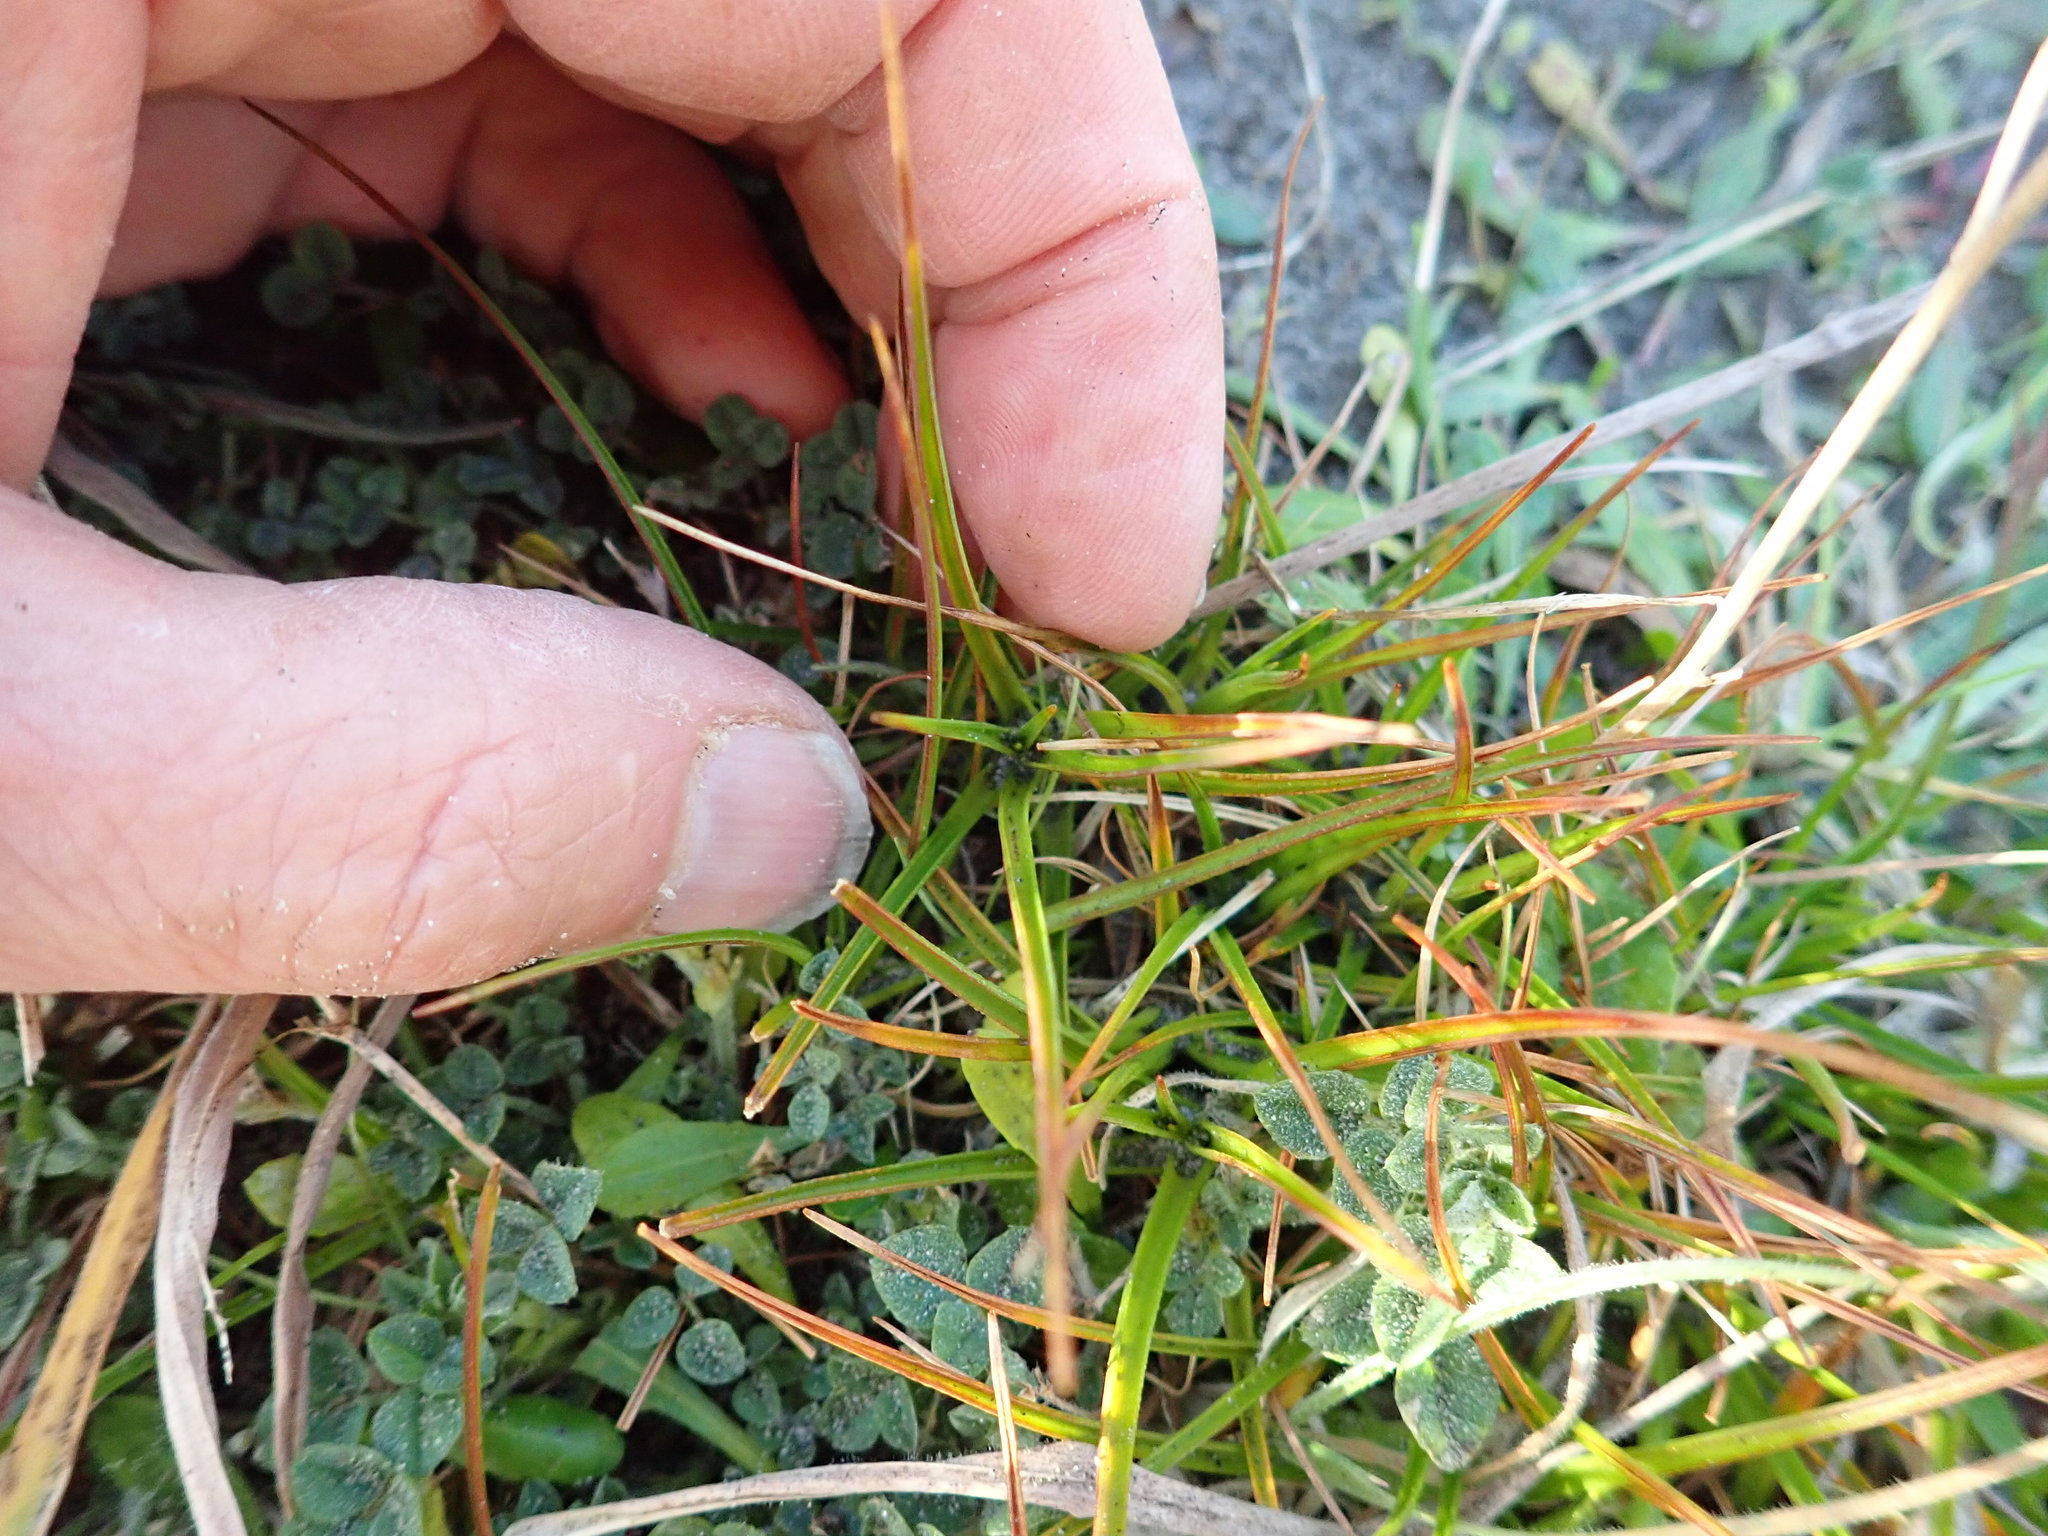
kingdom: Plantae
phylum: Tracheophyta
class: Liliopsida
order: Poales
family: Juncaceae
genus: Juncus
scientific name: Juncus caespiticius
